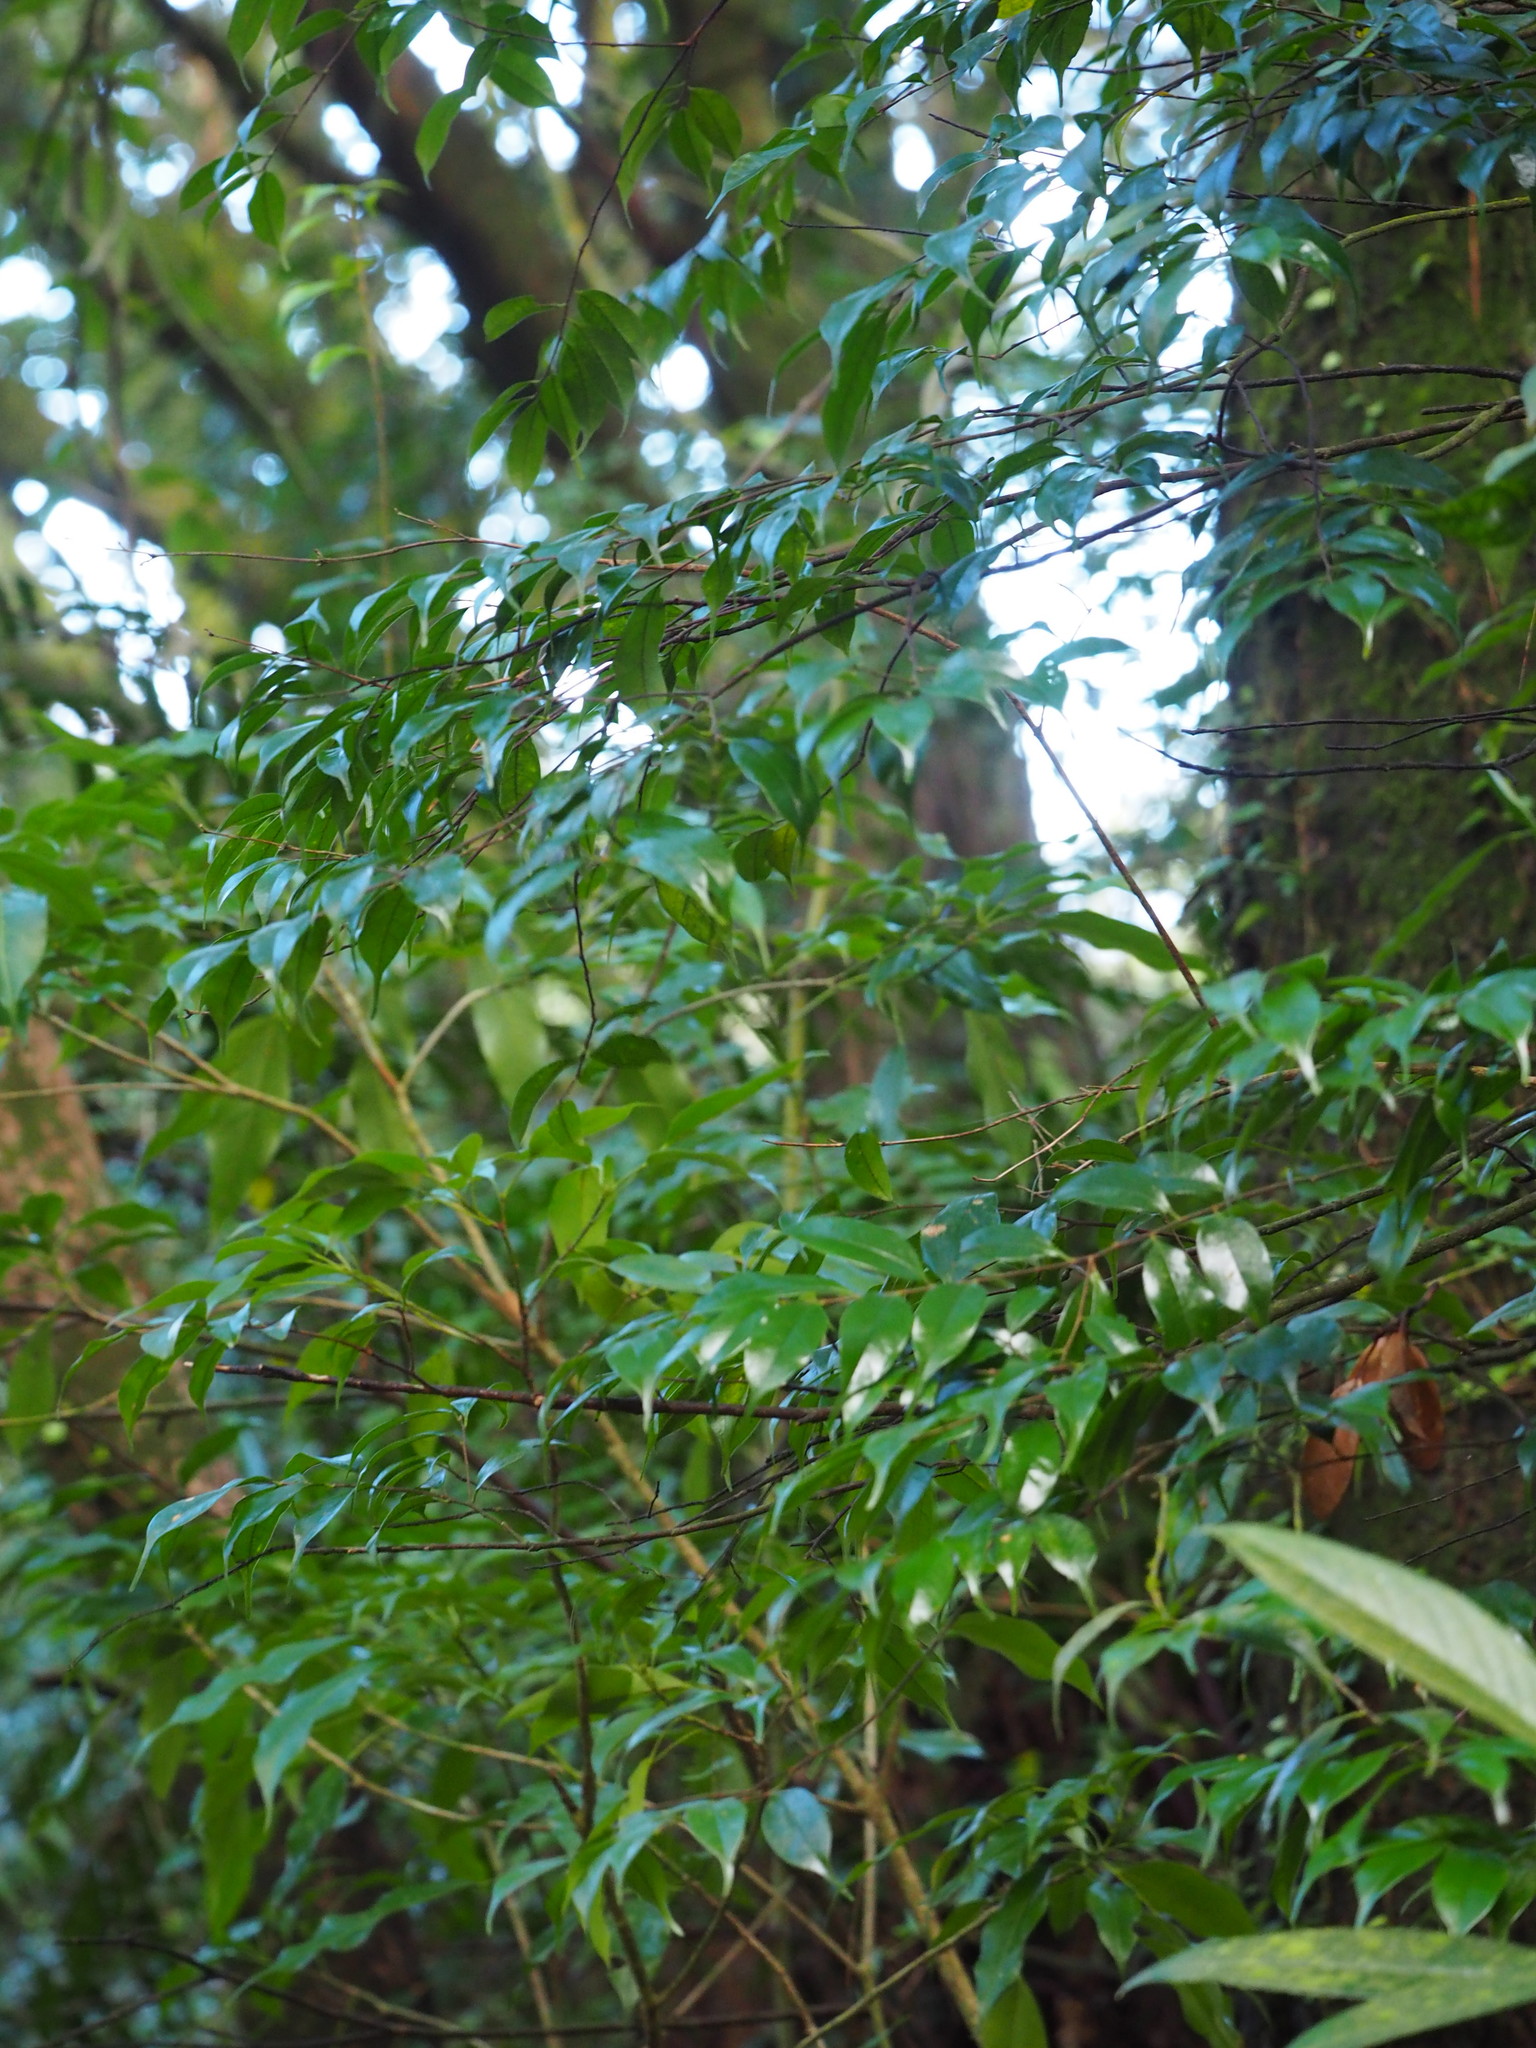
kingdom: Plantae
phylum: Tracheophyta
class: Magnoliopsida
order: Rosales
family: Rosaceae
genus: Prunus
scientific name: Prunus phaeosticta
